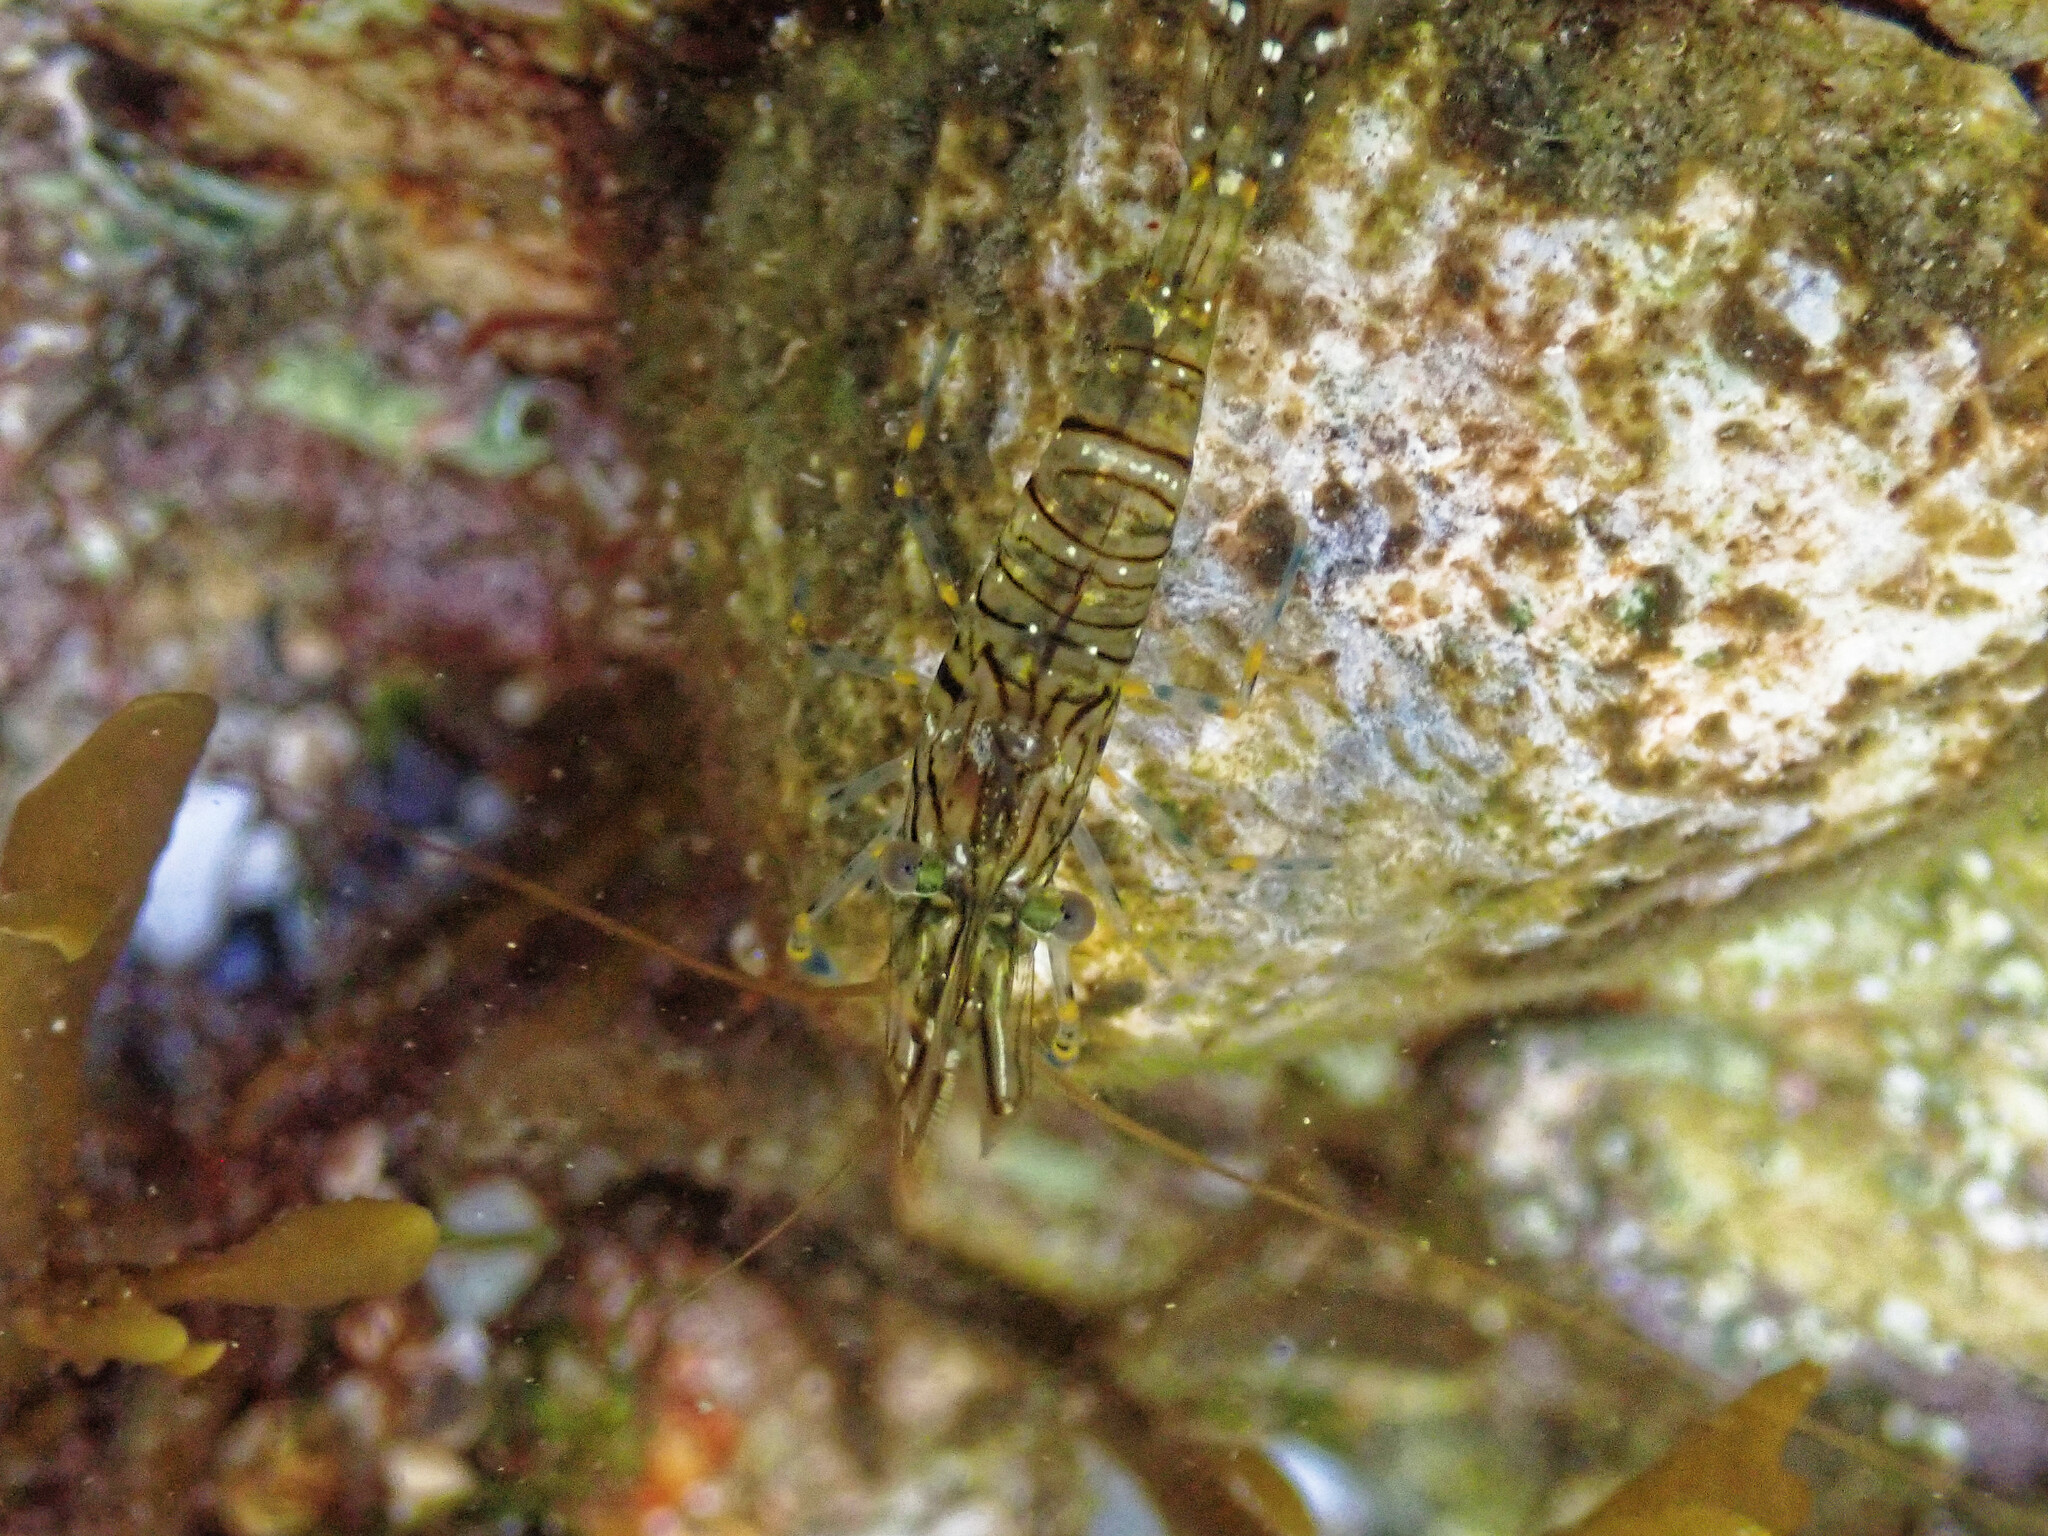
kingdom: Animalia
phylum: Arthropoda
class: Malacostraca
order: Decapoda
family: Palaemonidae
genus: Palaemon
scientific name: Palaemon elegans
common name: Grass prawm
